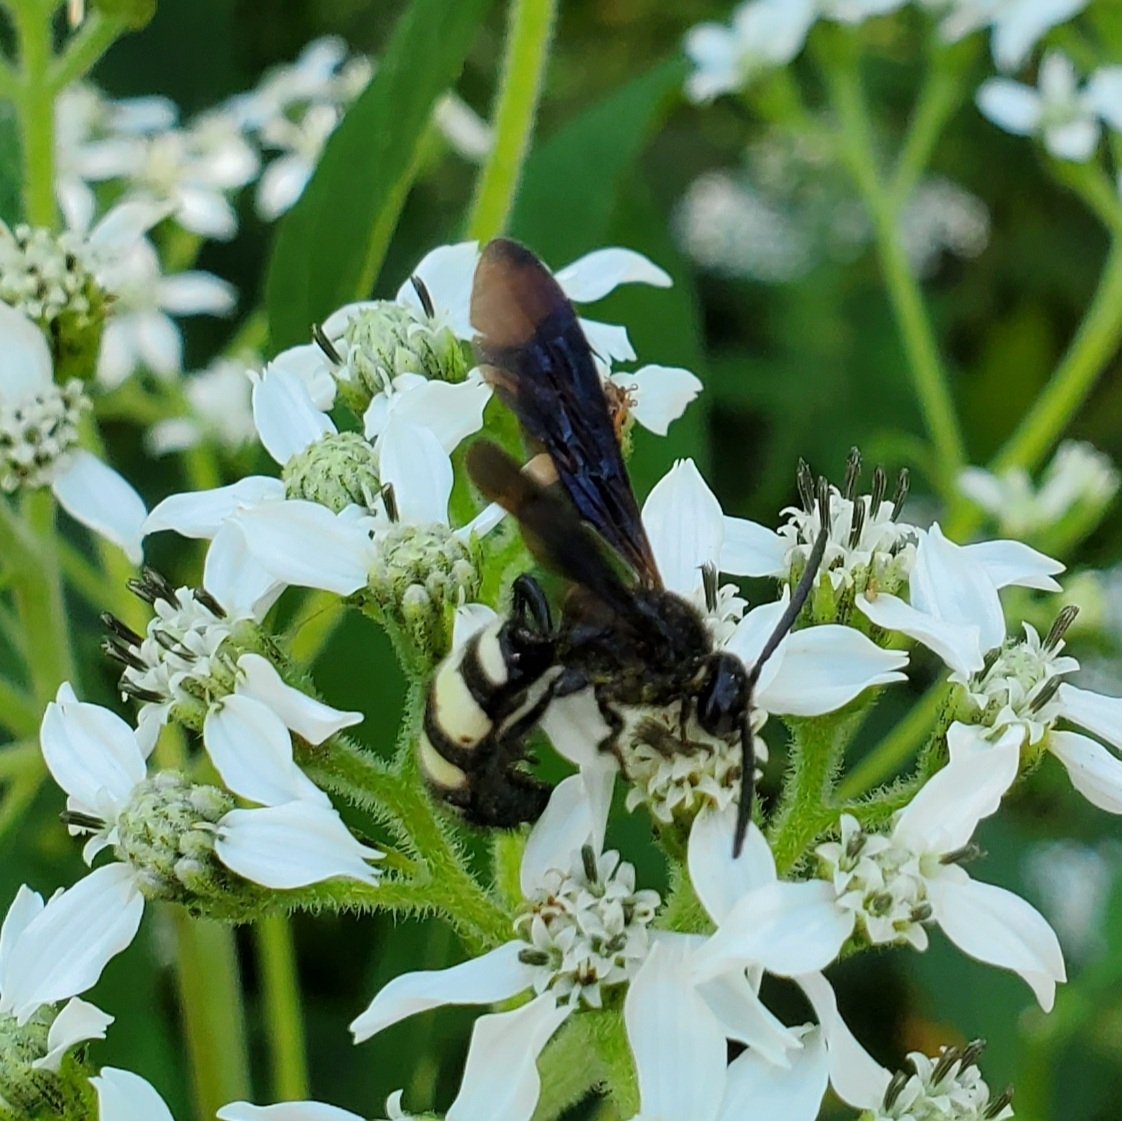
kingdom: Animalia
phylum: Arthropoda
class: Insecta
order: Hymenoptera
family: Scoliidae
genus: Scolia
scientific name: Scolia bicincta
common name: Double-banded scoliid wasp
